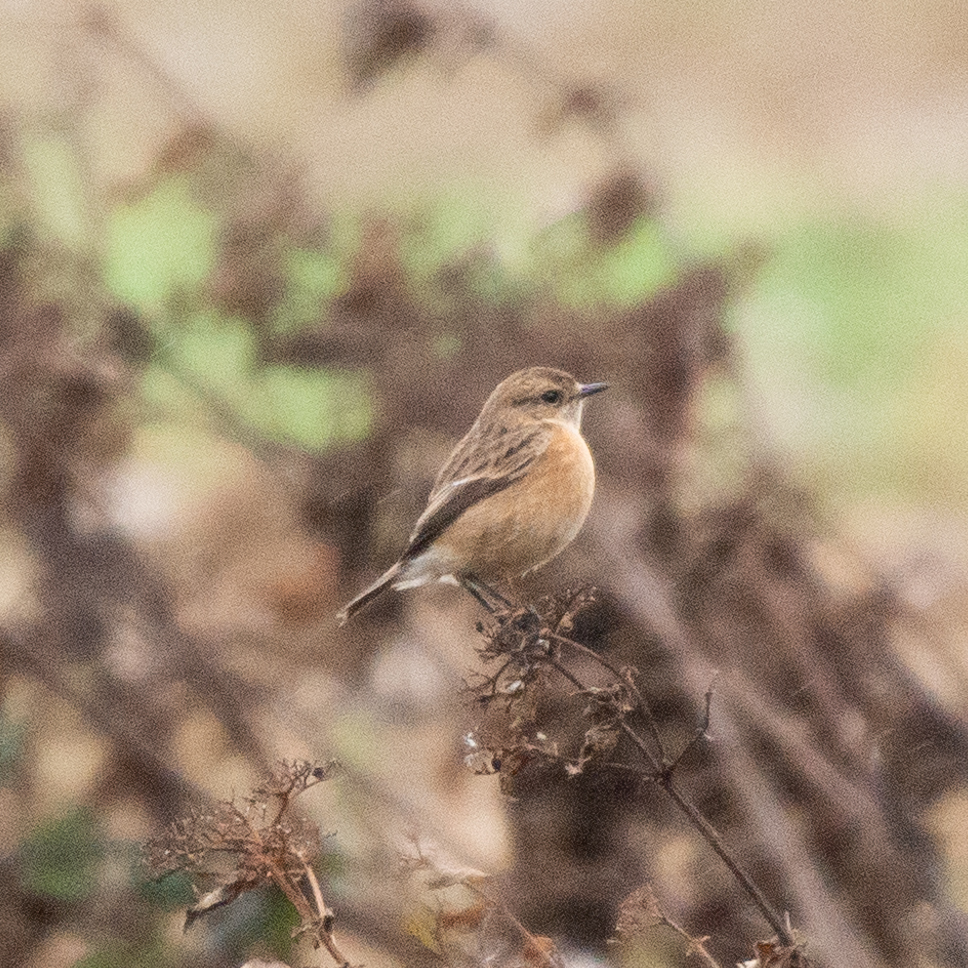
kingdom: Animalia
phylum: Chordata
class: Aves
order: Passeriformes
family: Muscicapidae
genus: Saxicola
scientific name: Saxicola rubicola
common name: European stonechat
